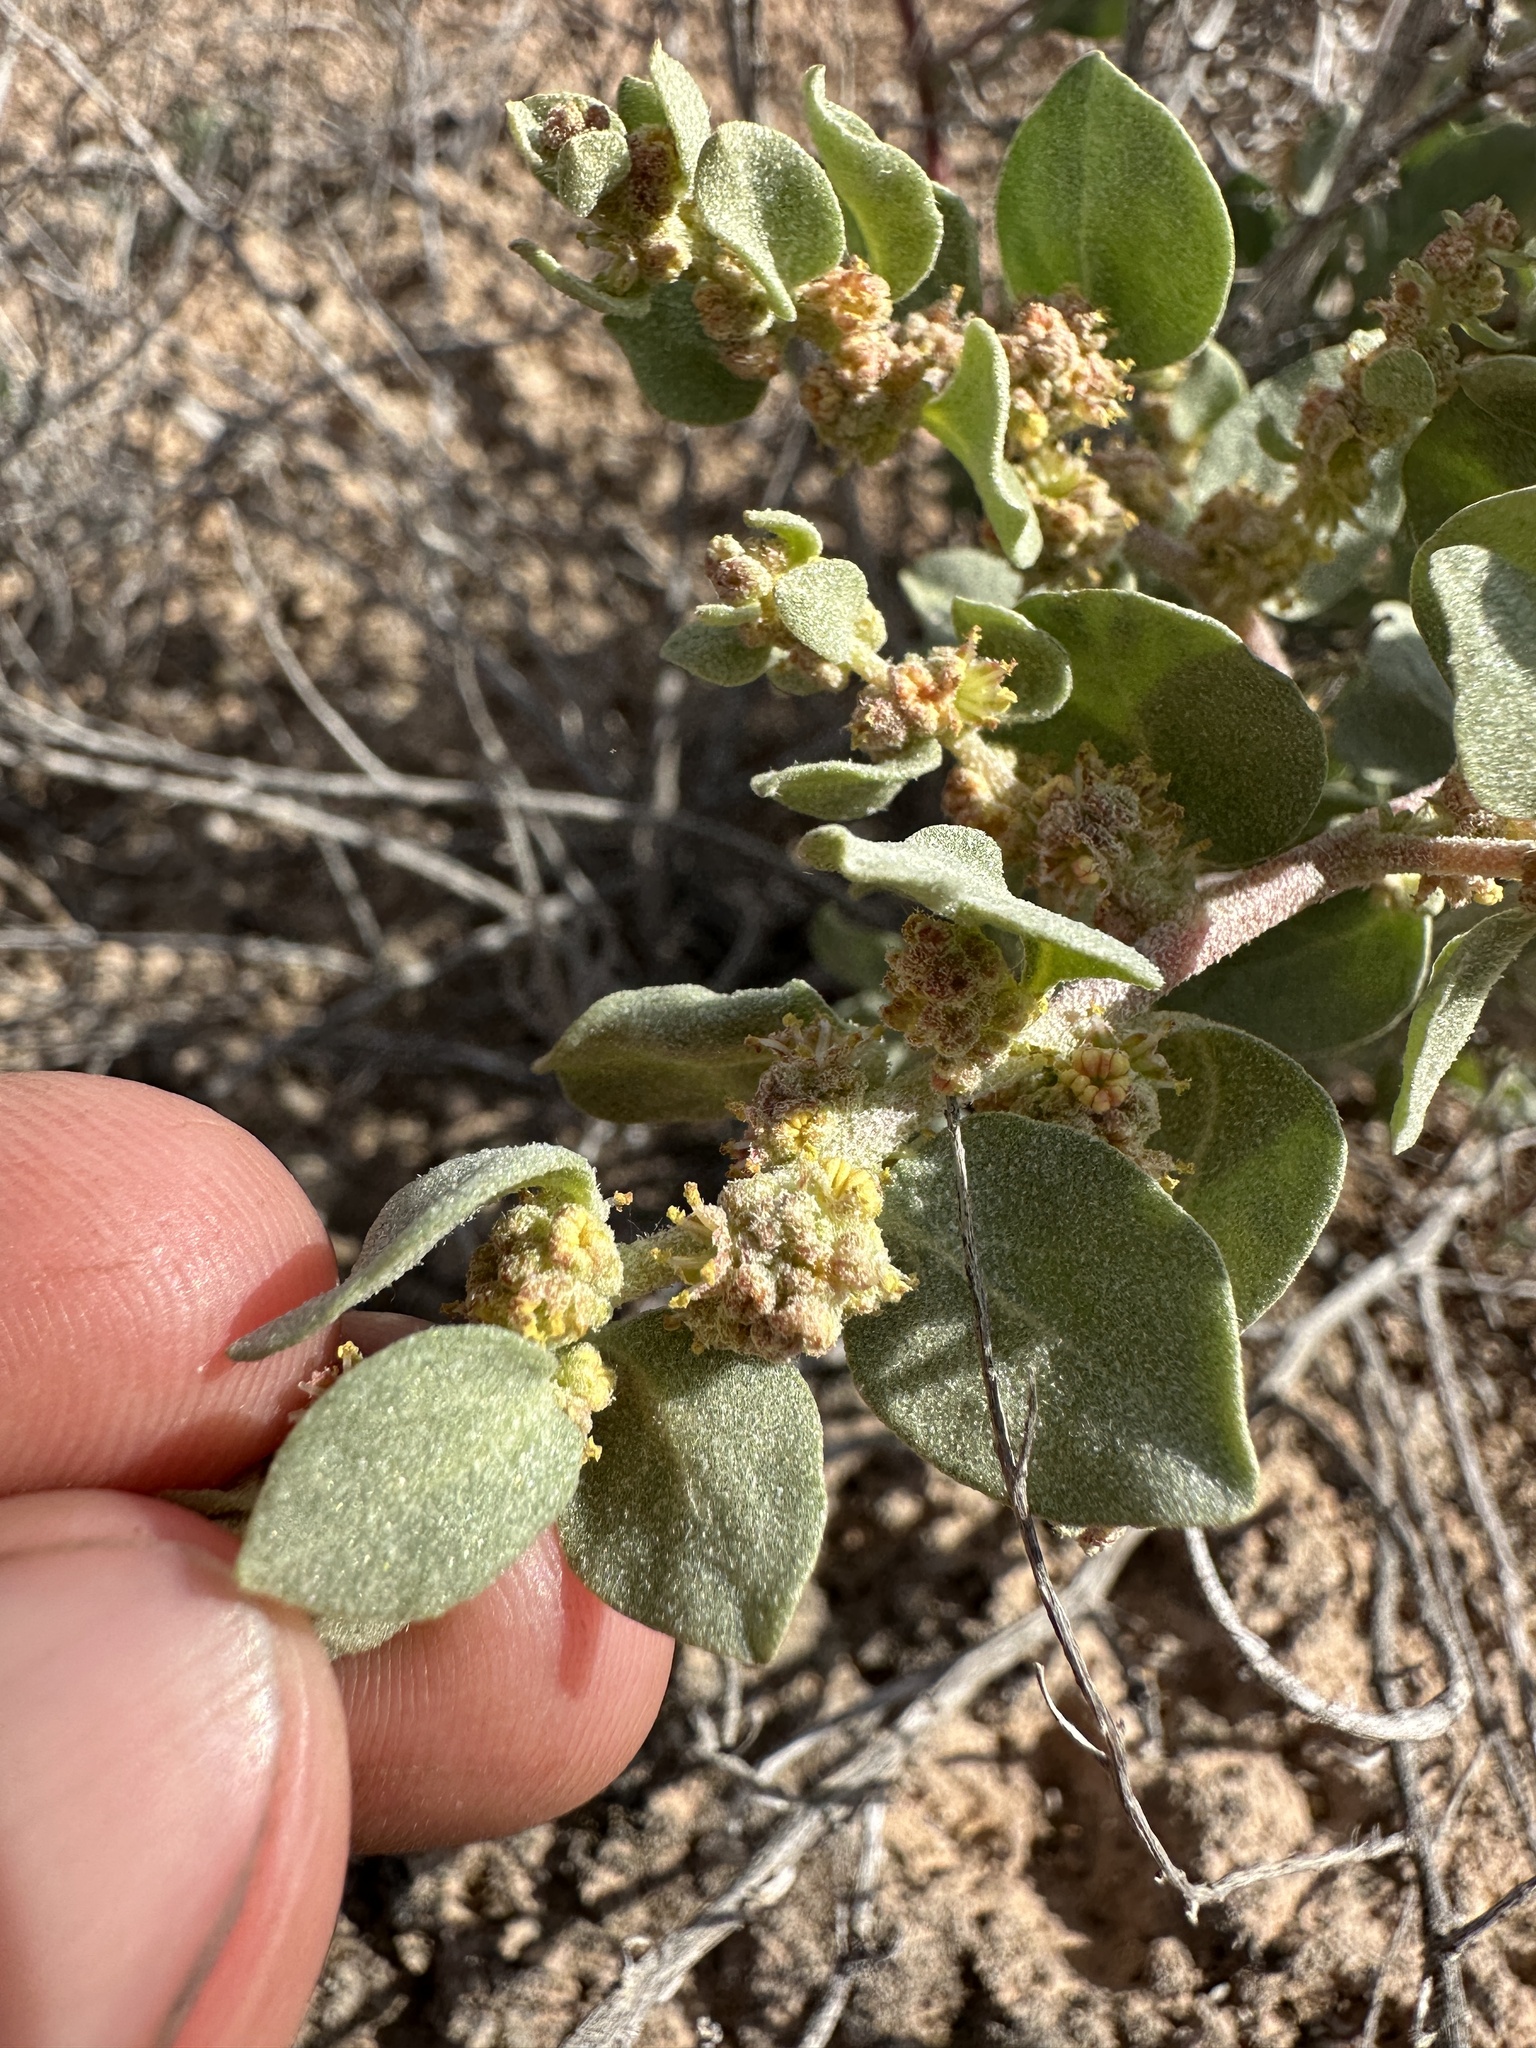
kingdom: Plantae
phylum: Tracheophyta
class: Magnoliopsida
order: Caryophyllales
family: Amaranthaceae
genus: Atriplex
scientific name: Atriplex confertifolia
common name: Shadscale
